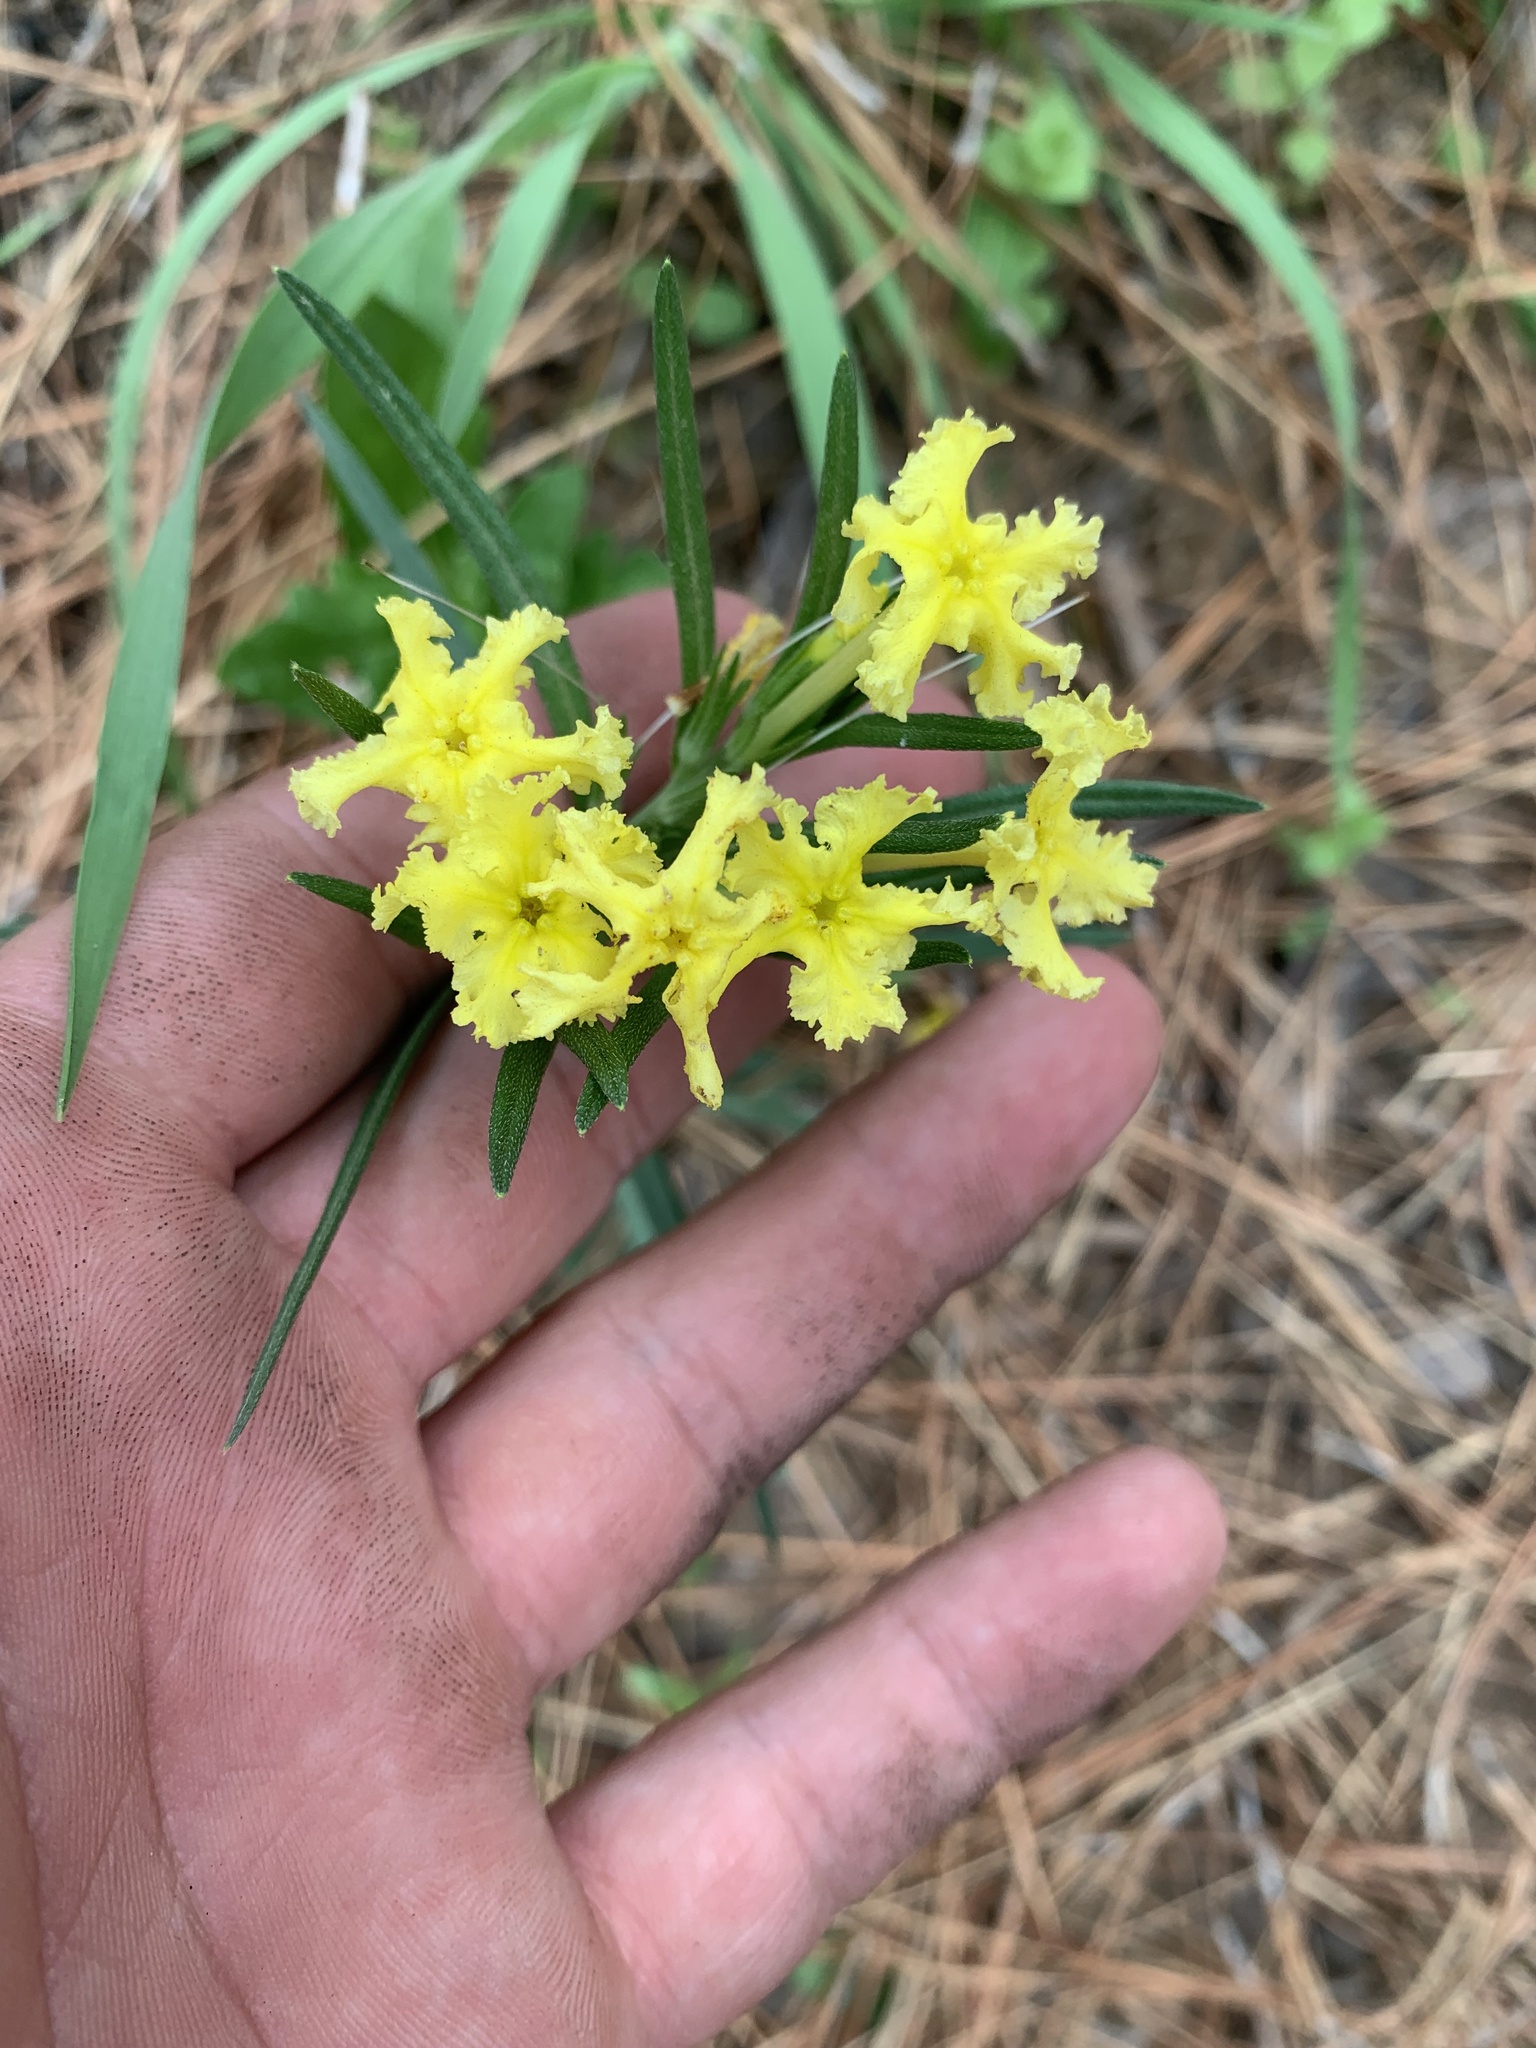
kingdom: Plantae
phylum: Tracheophyta
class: Magnoliopsida
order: Boraginales
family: Boraginaceae
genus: Lithospermum
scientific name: Lithospermum incisum
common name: Fringed gromwell
